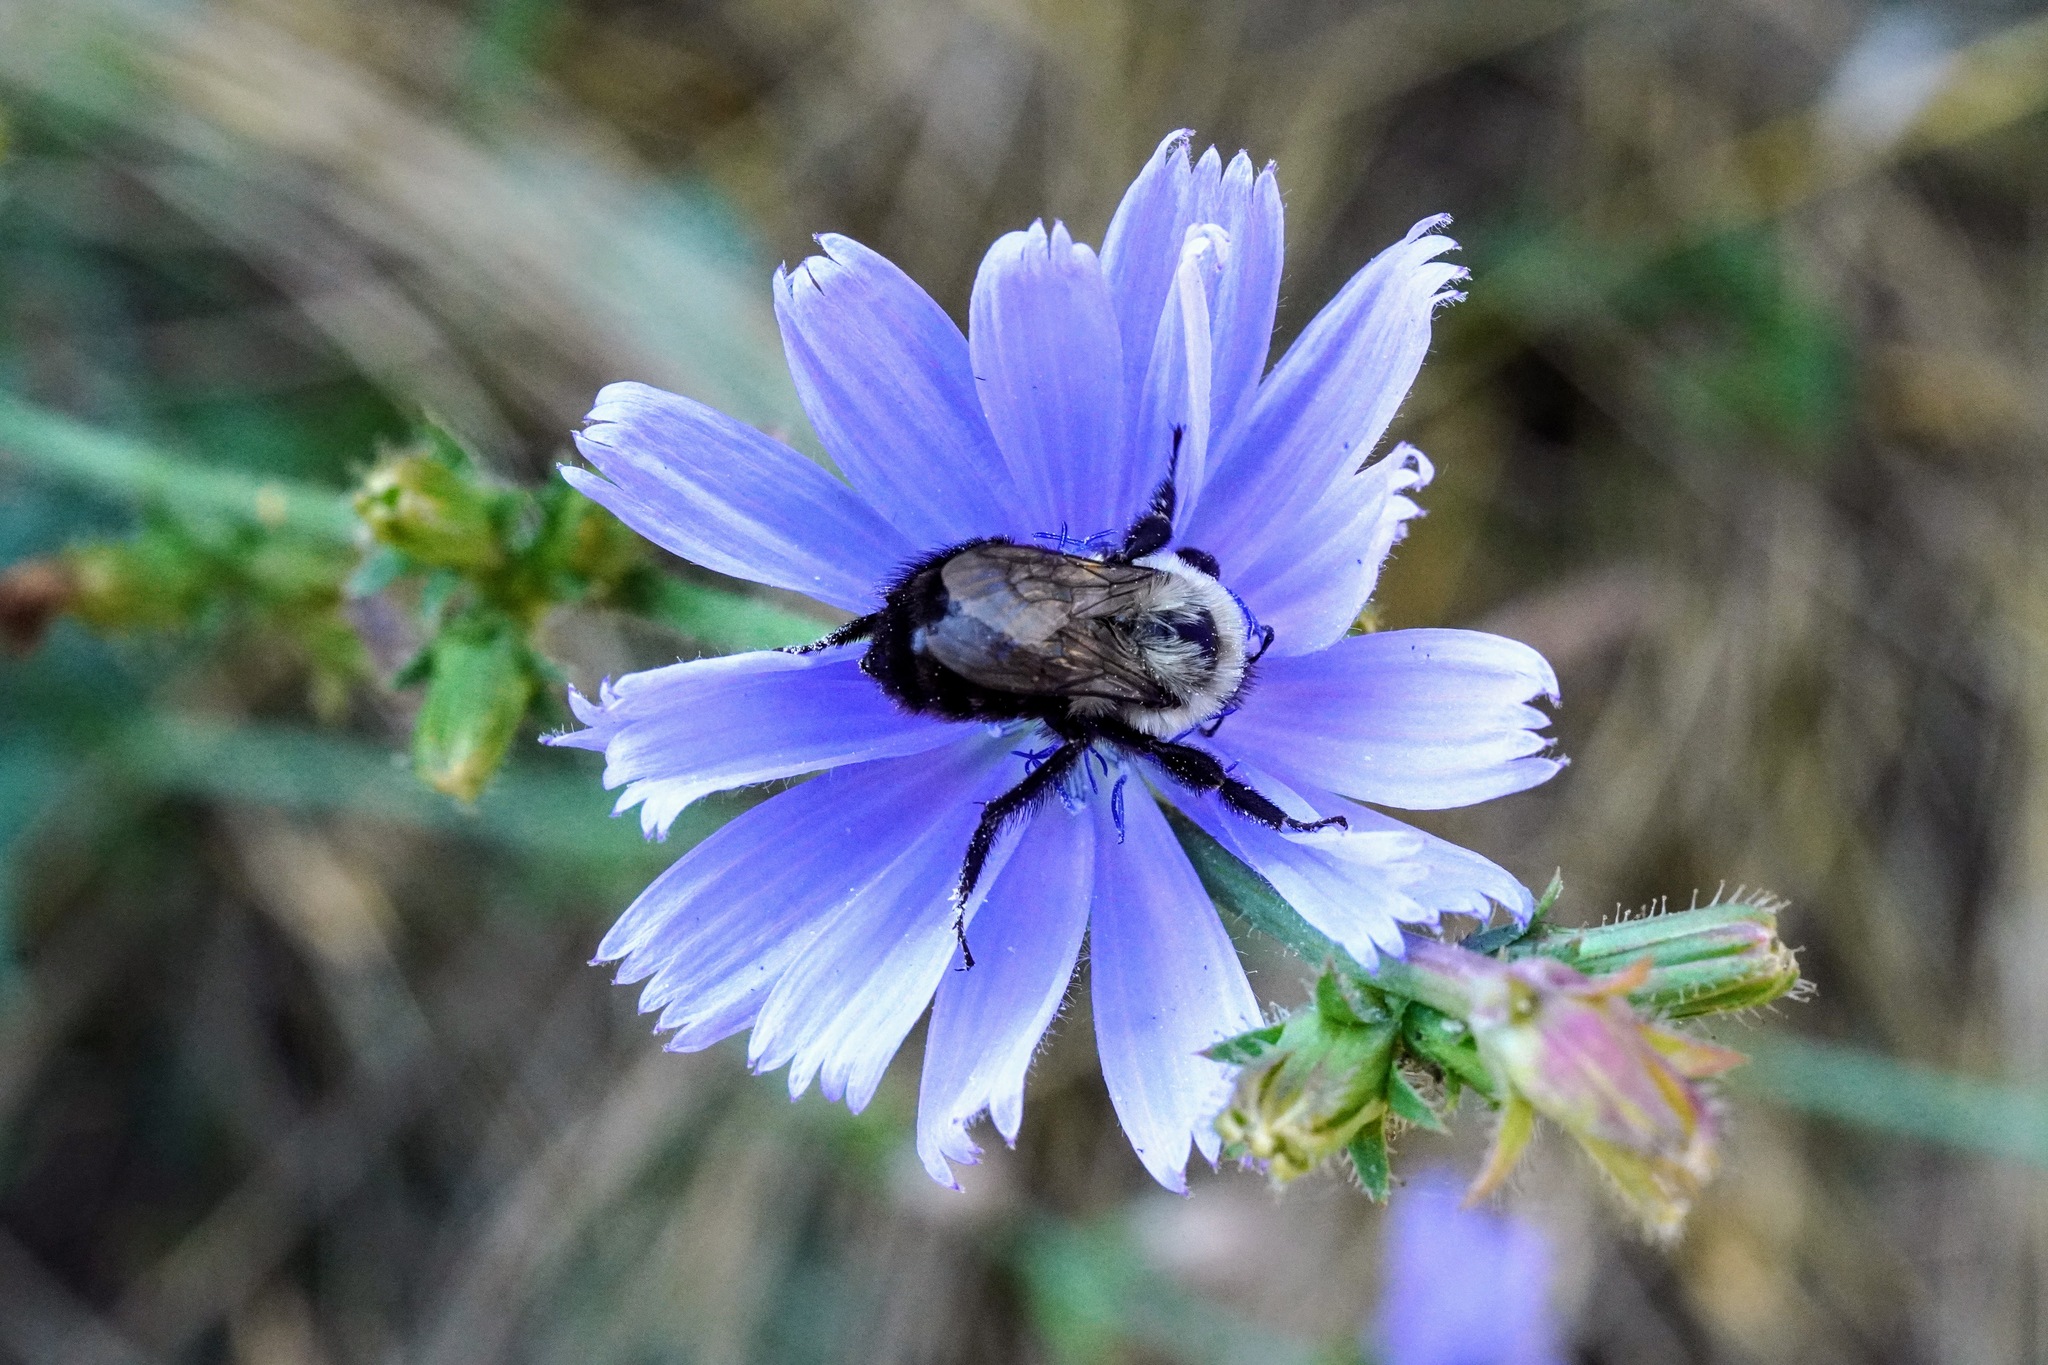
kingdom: Animalia
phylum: Arthropoda
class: Insecta
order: Hymenoptera
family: Apidae
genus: Bombus
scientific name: Bombus impatiens
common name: Common eastern bumble bee
